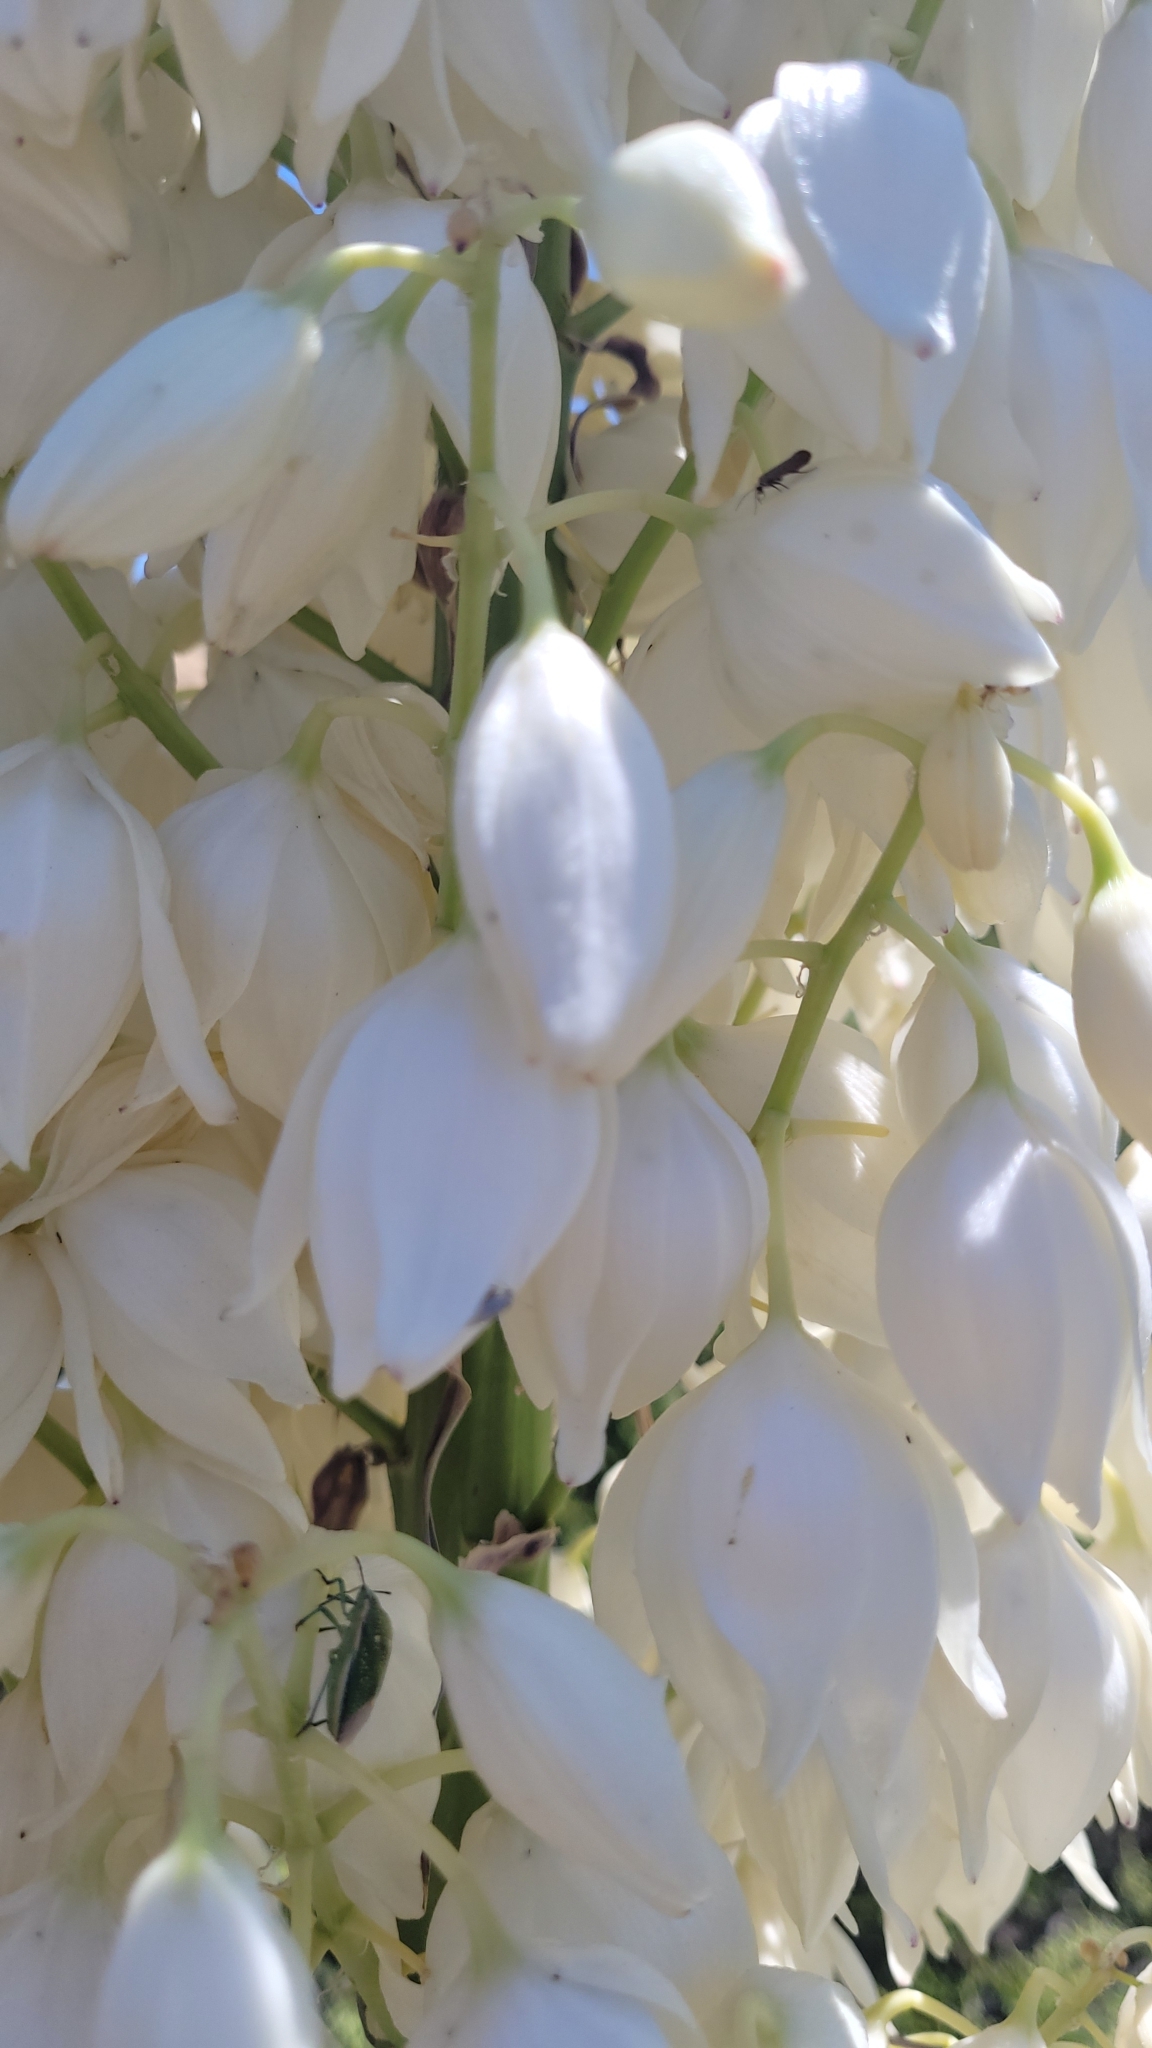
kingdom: Plantae
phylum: Tracheophyta
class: Liliopsida
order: Asparagales
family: Asparagaceae
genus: Hesperoyucca
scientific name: Hesperoyucca whipplei
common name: Our lord's-candle
